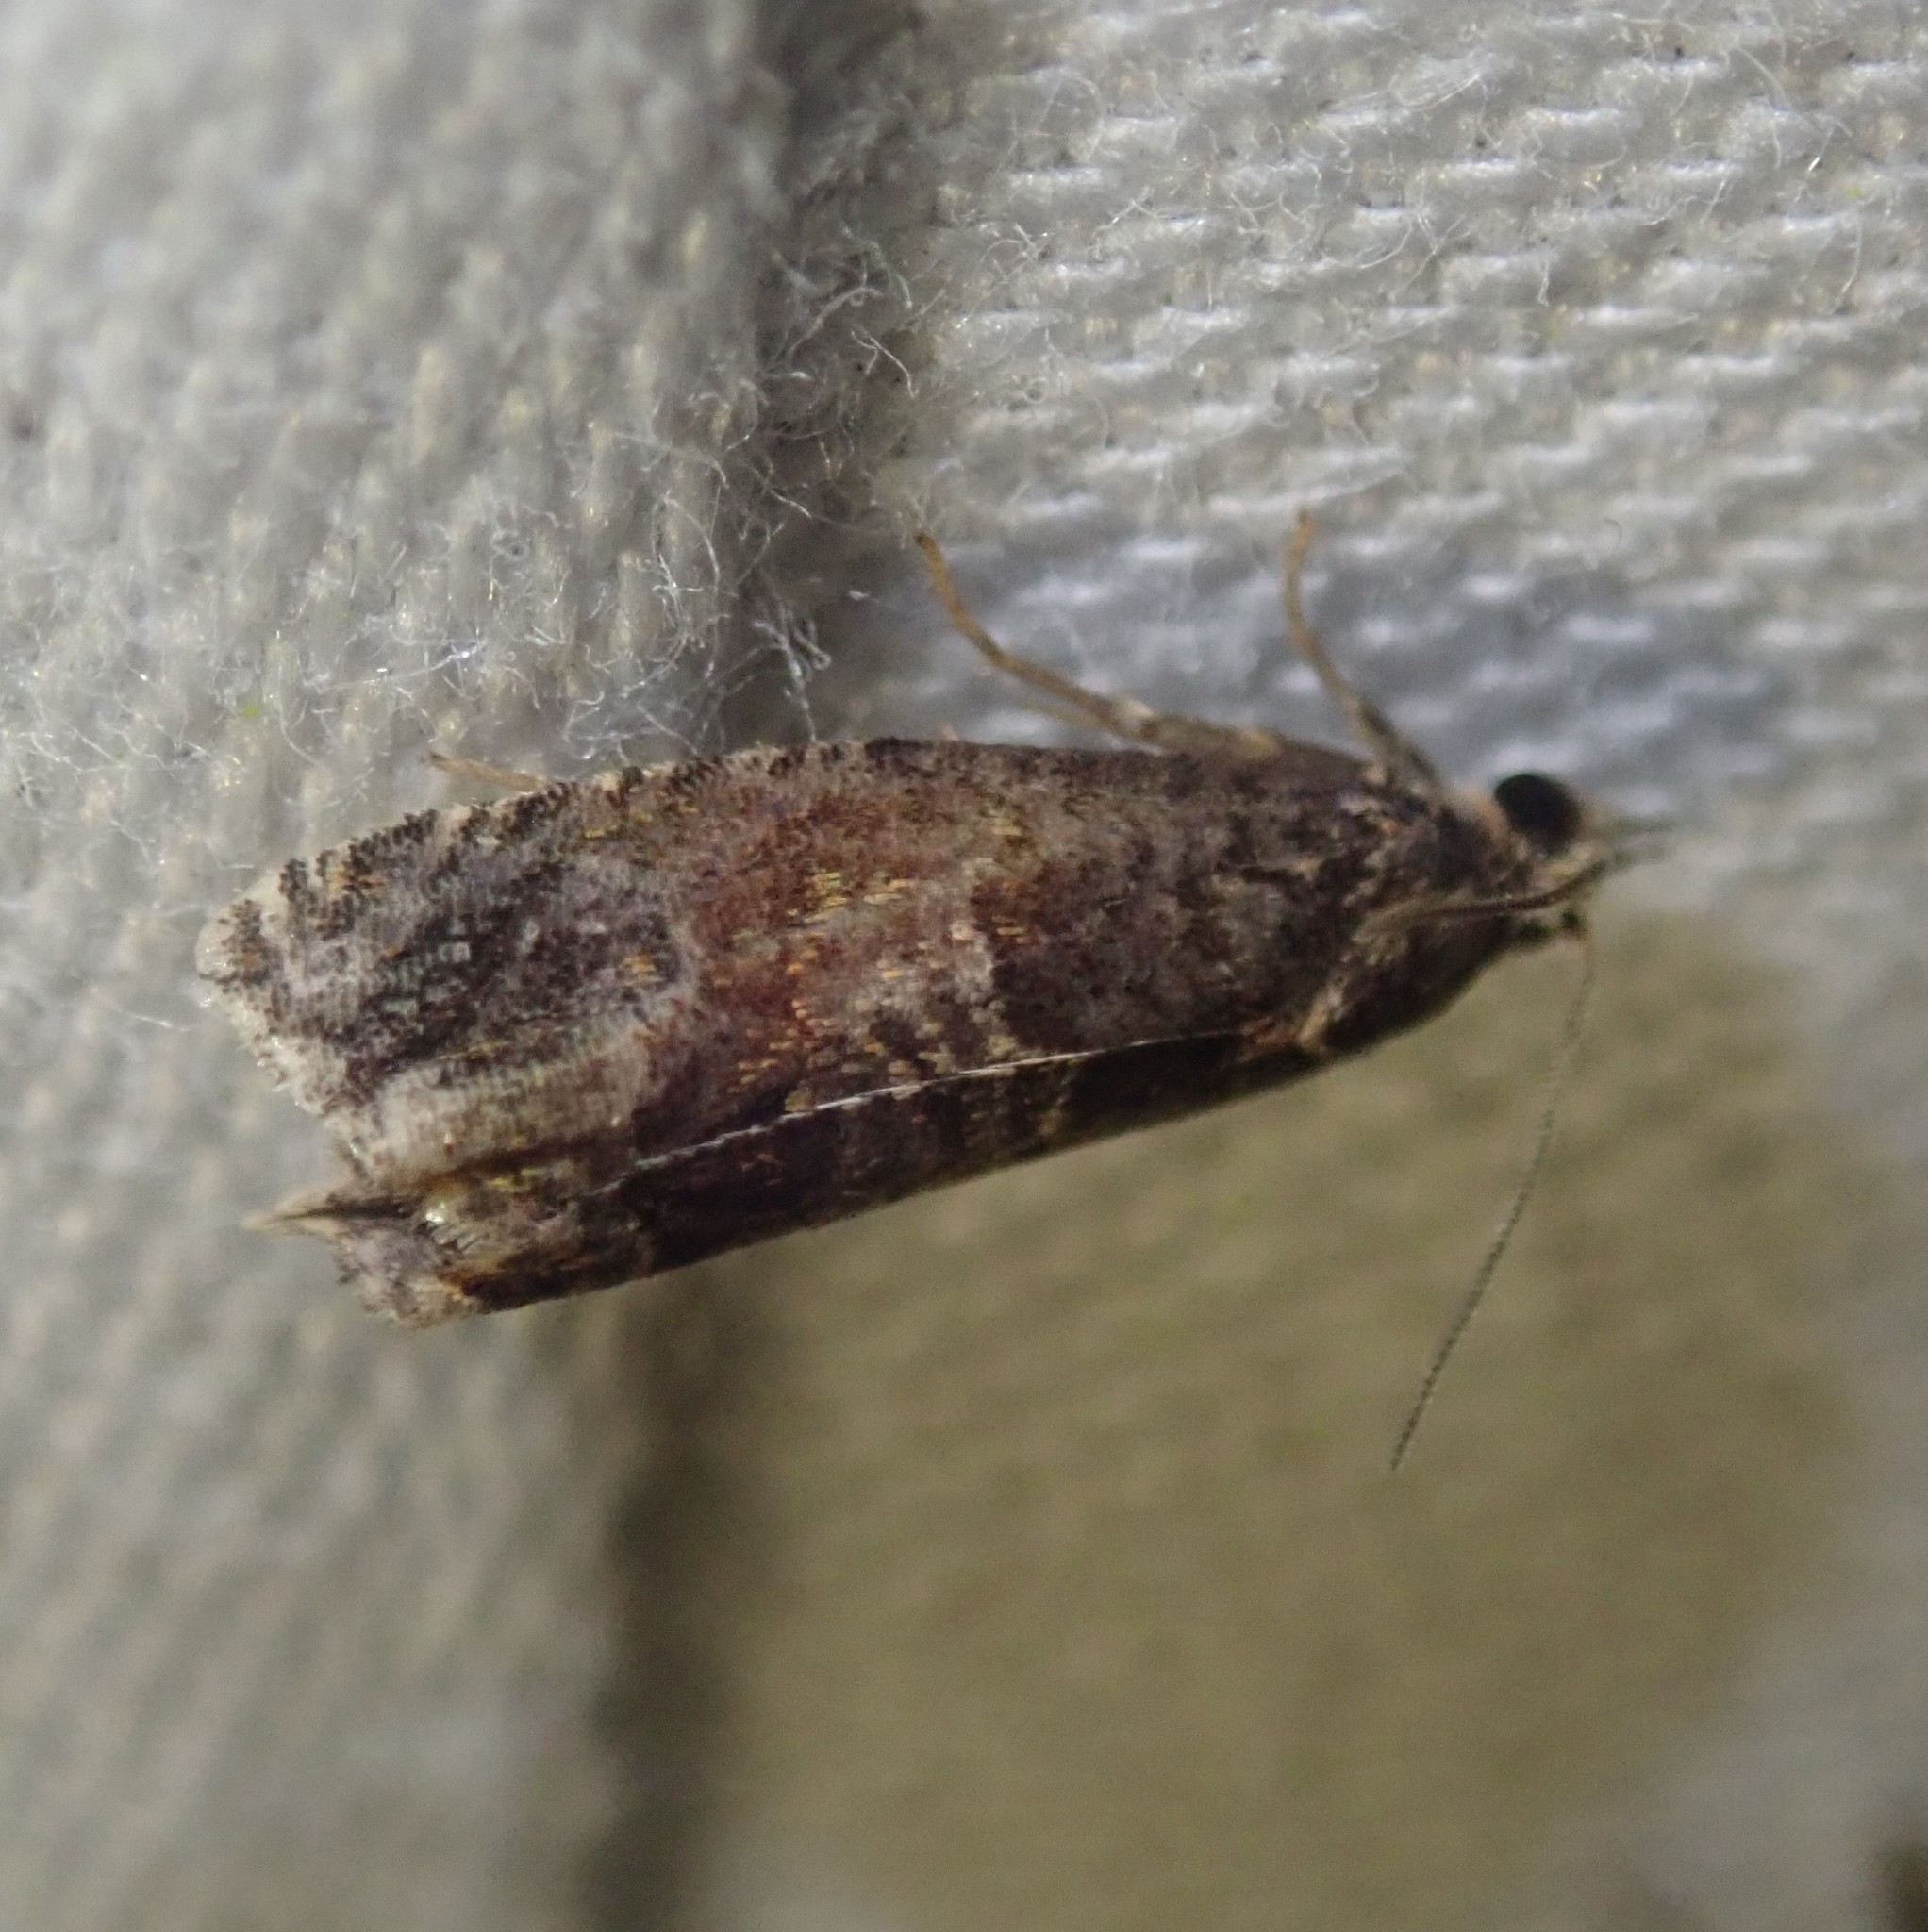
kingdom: Animalia
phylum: Arthropoda
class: Insecta
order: Lepidoptera
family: Tortricidae
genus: Cydia
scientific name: Cydia pomonella
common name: Codling moth
